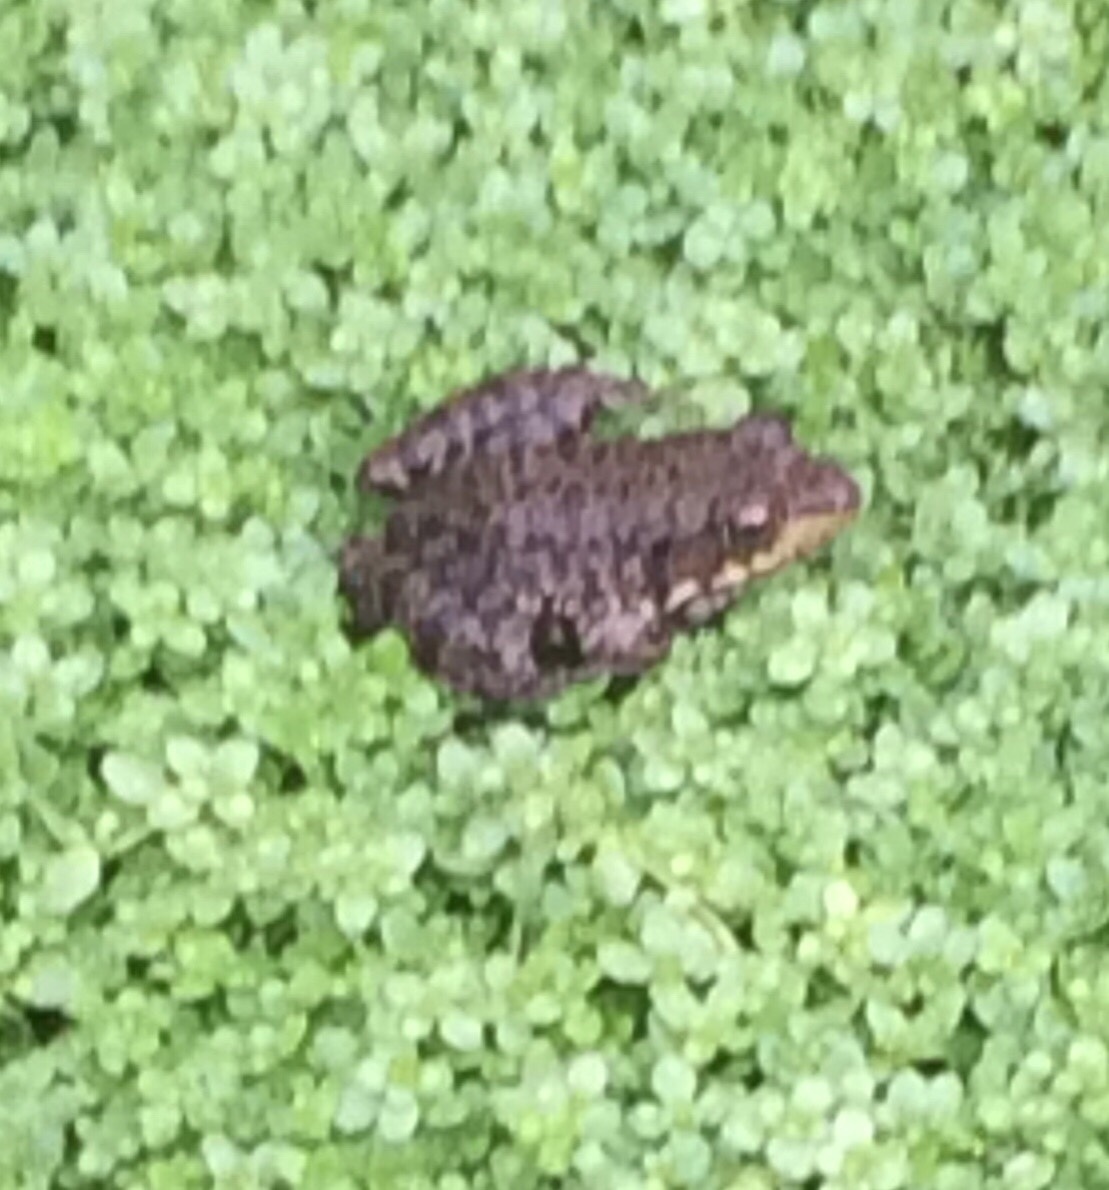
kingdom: Animalia
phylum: Chordata
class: Amphibia
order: Anura
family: Ranidae
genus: Lithobates
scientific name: Lithobates clamitans
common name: Green frog
